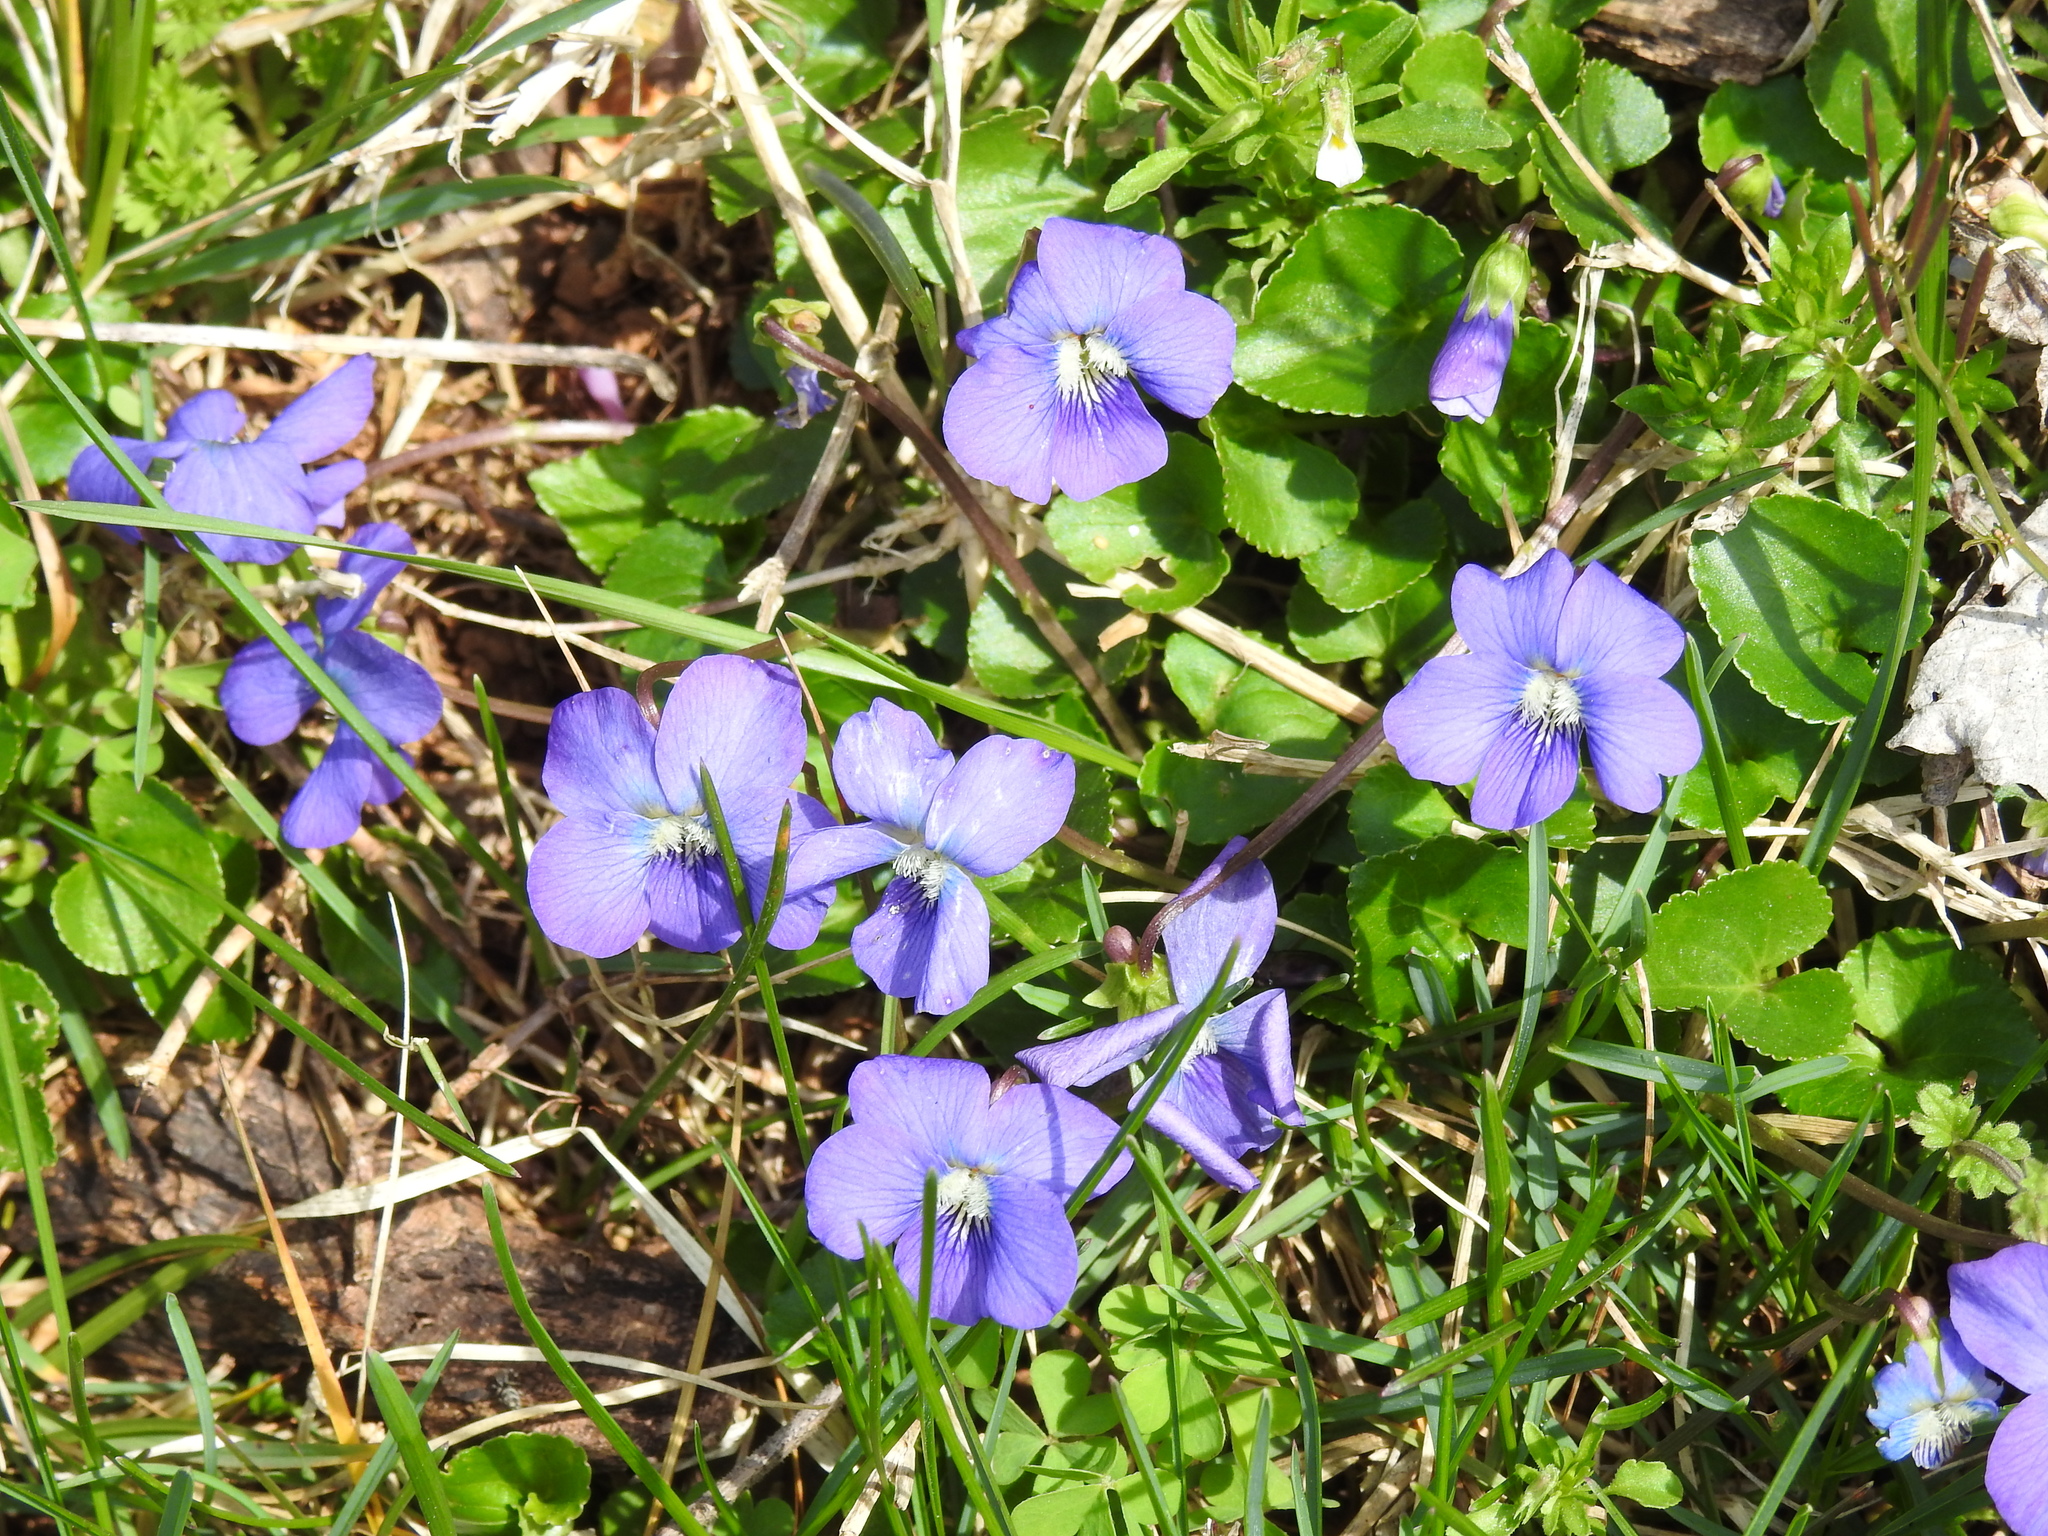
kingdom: Plantae
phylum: Tracheophyta
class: Magnoliopsida
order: Malpighiales
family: Violaceae
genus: Viola
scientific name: Viola cucullata
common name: Marsh blue violet
